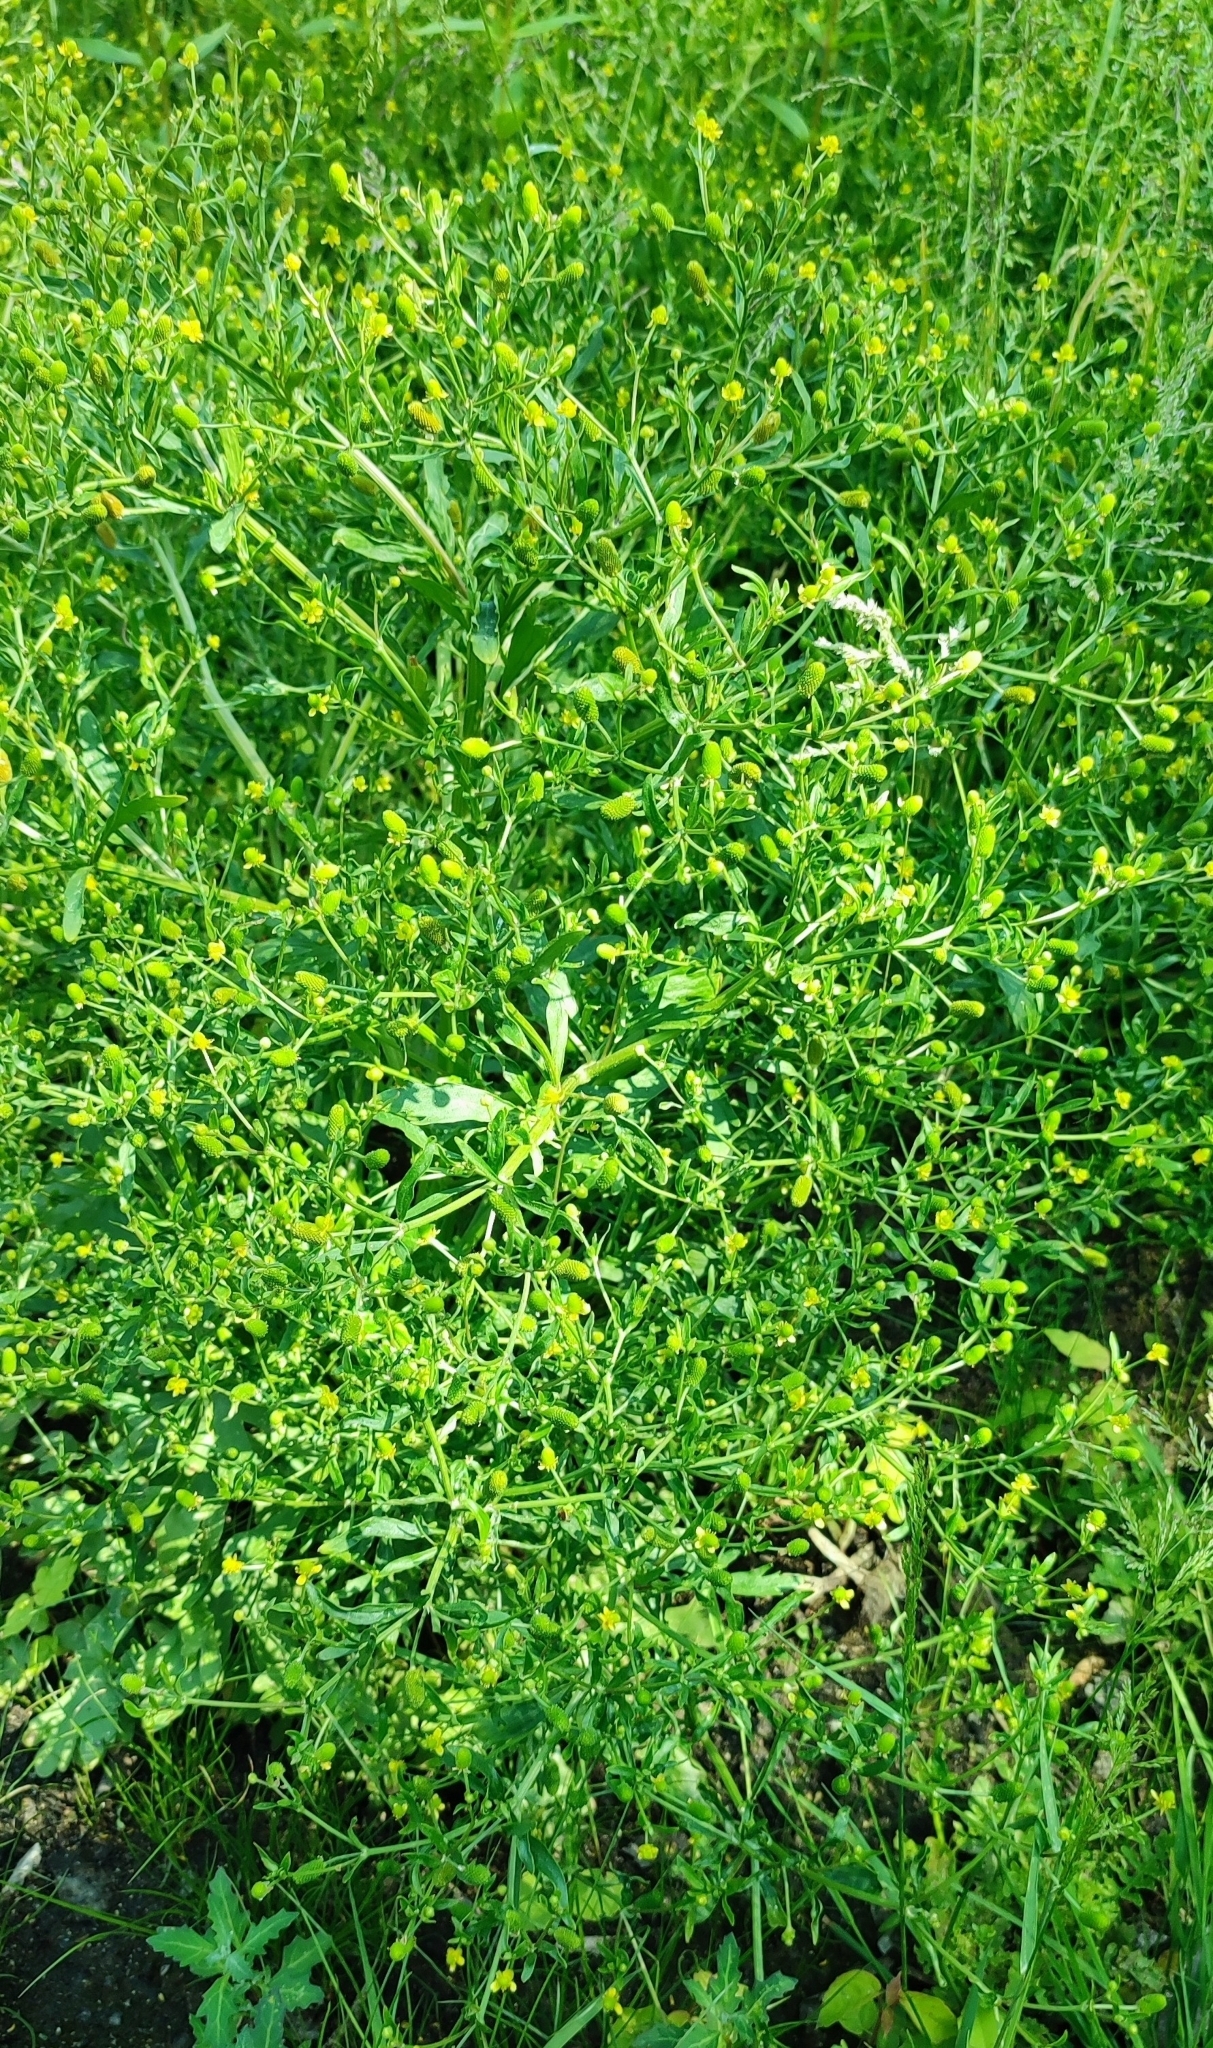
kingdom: Plantae
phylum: Tracheophyta
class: Magnoliopsida
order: Ranunculales
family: Ranunculaceae
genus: Ranunculus
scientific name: Ranunculus sceleratus
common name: Celery-leaved buttercup
